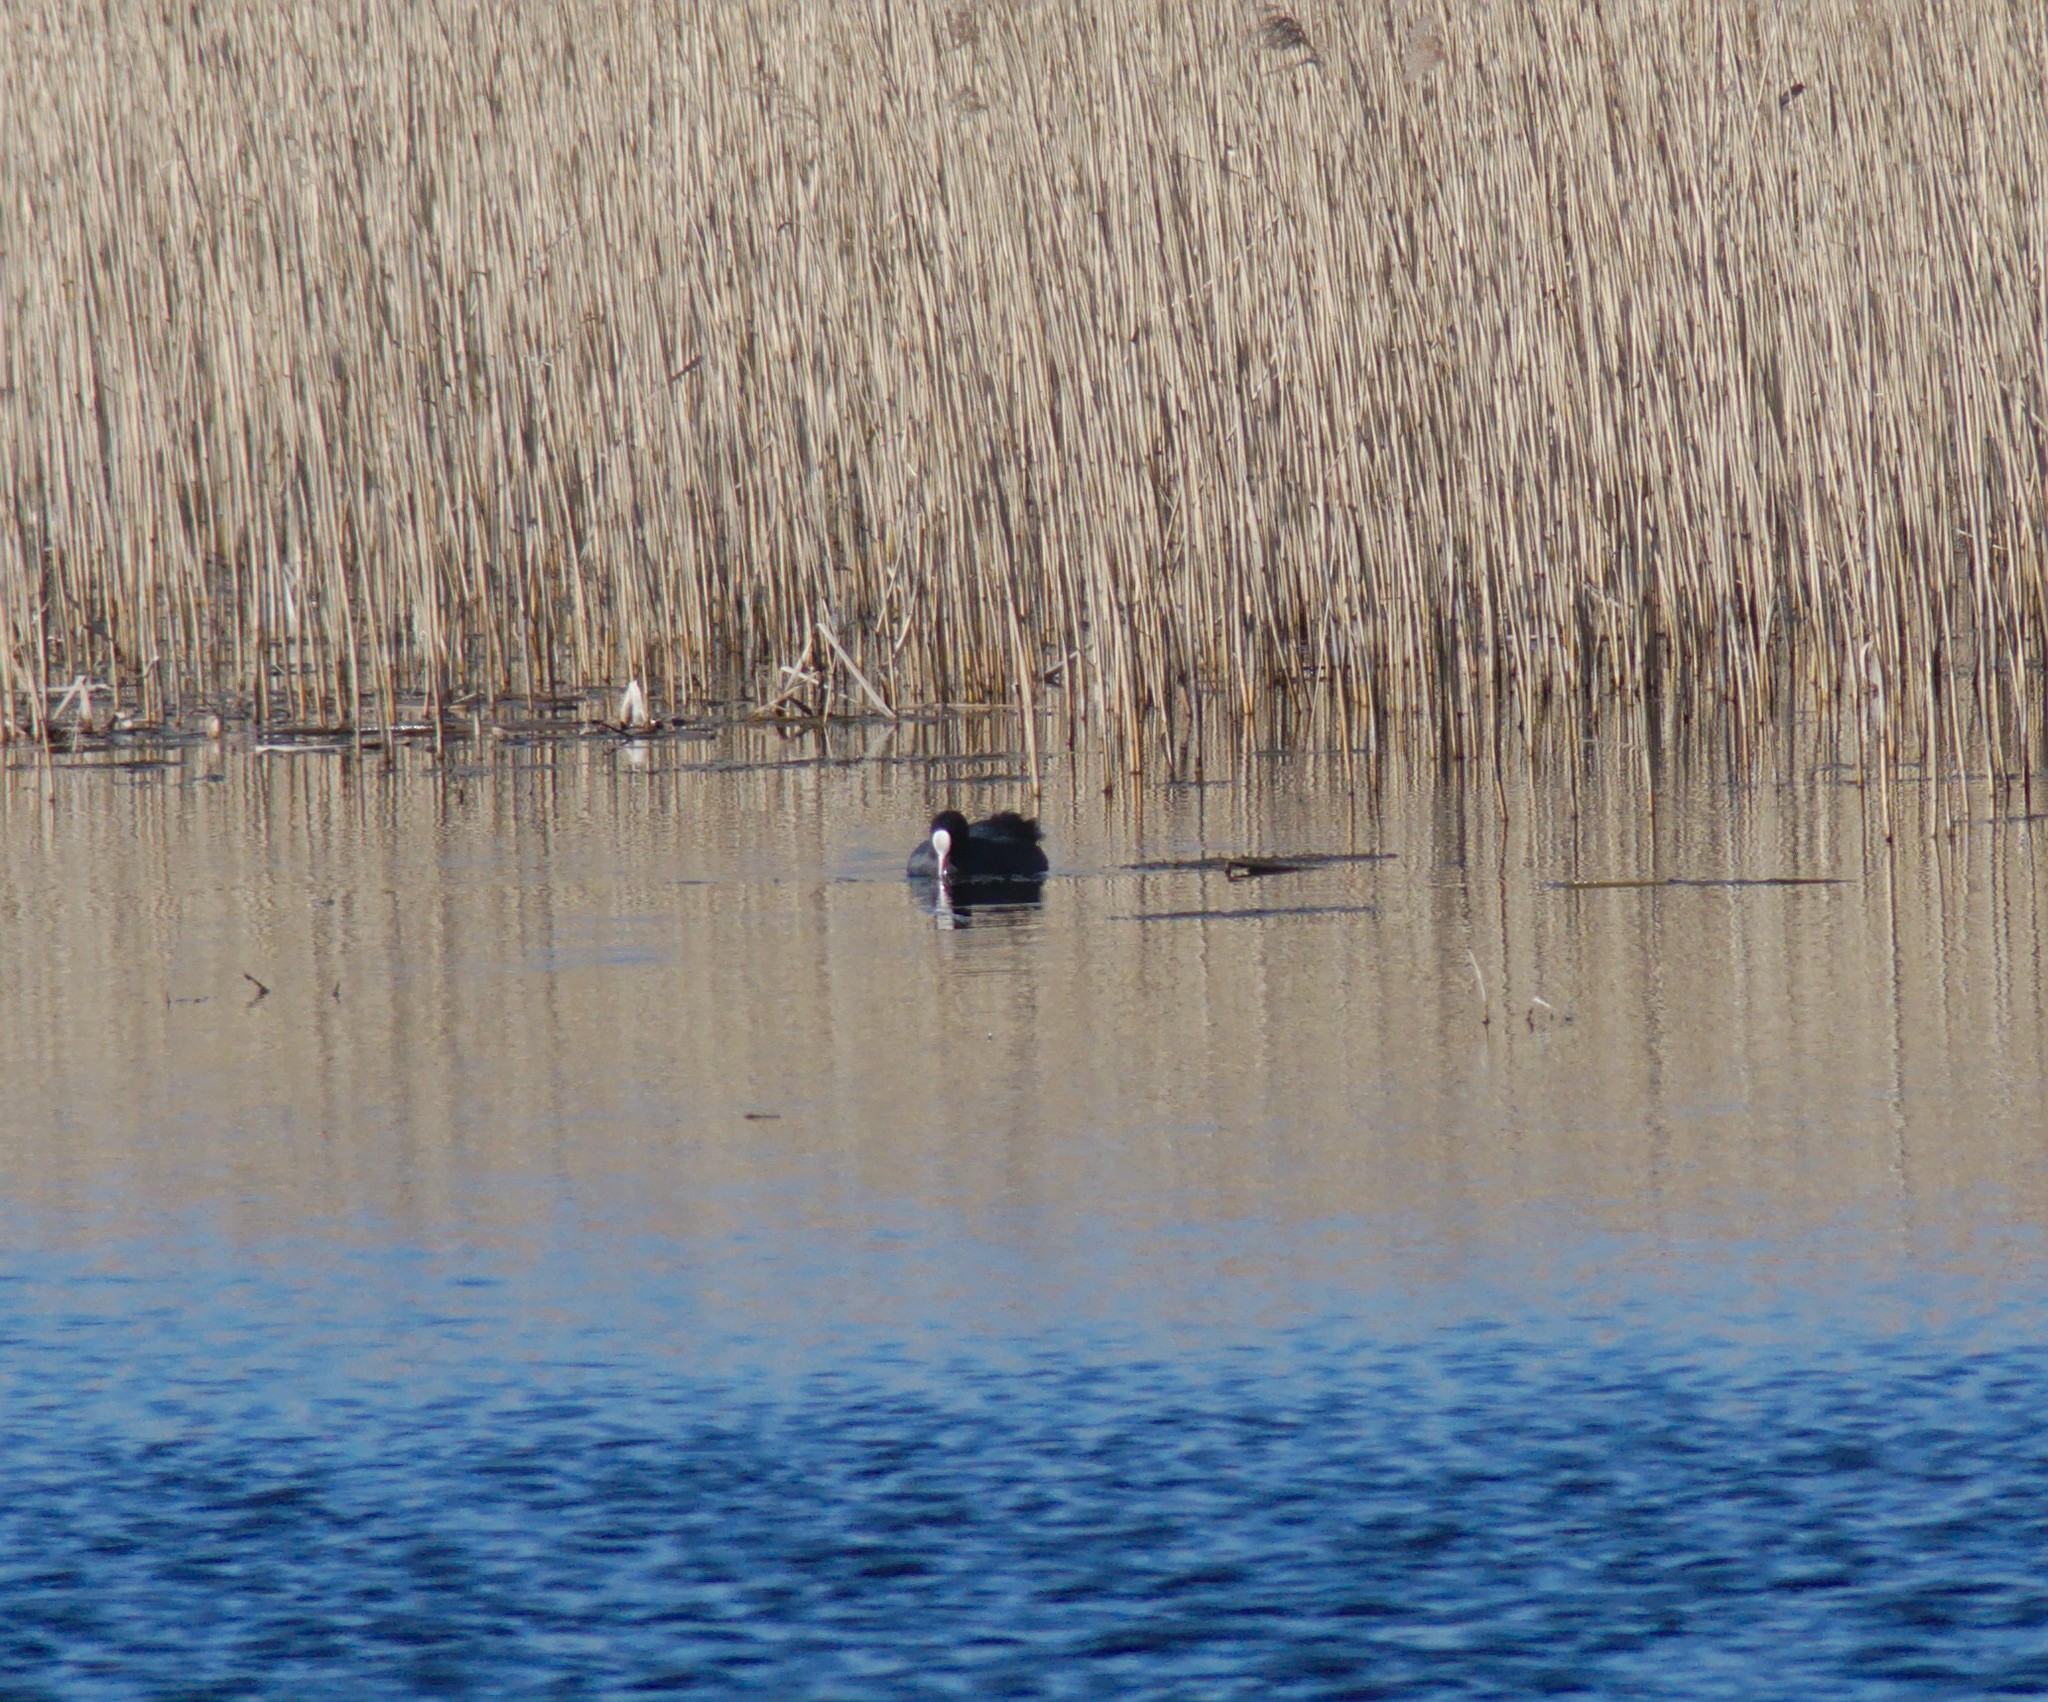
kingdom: Animalia
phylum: Chordata
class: Aves
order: Gruiformes
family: Rallidae
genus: Fulica
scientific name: Fulica atra
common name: Eurasian coot
